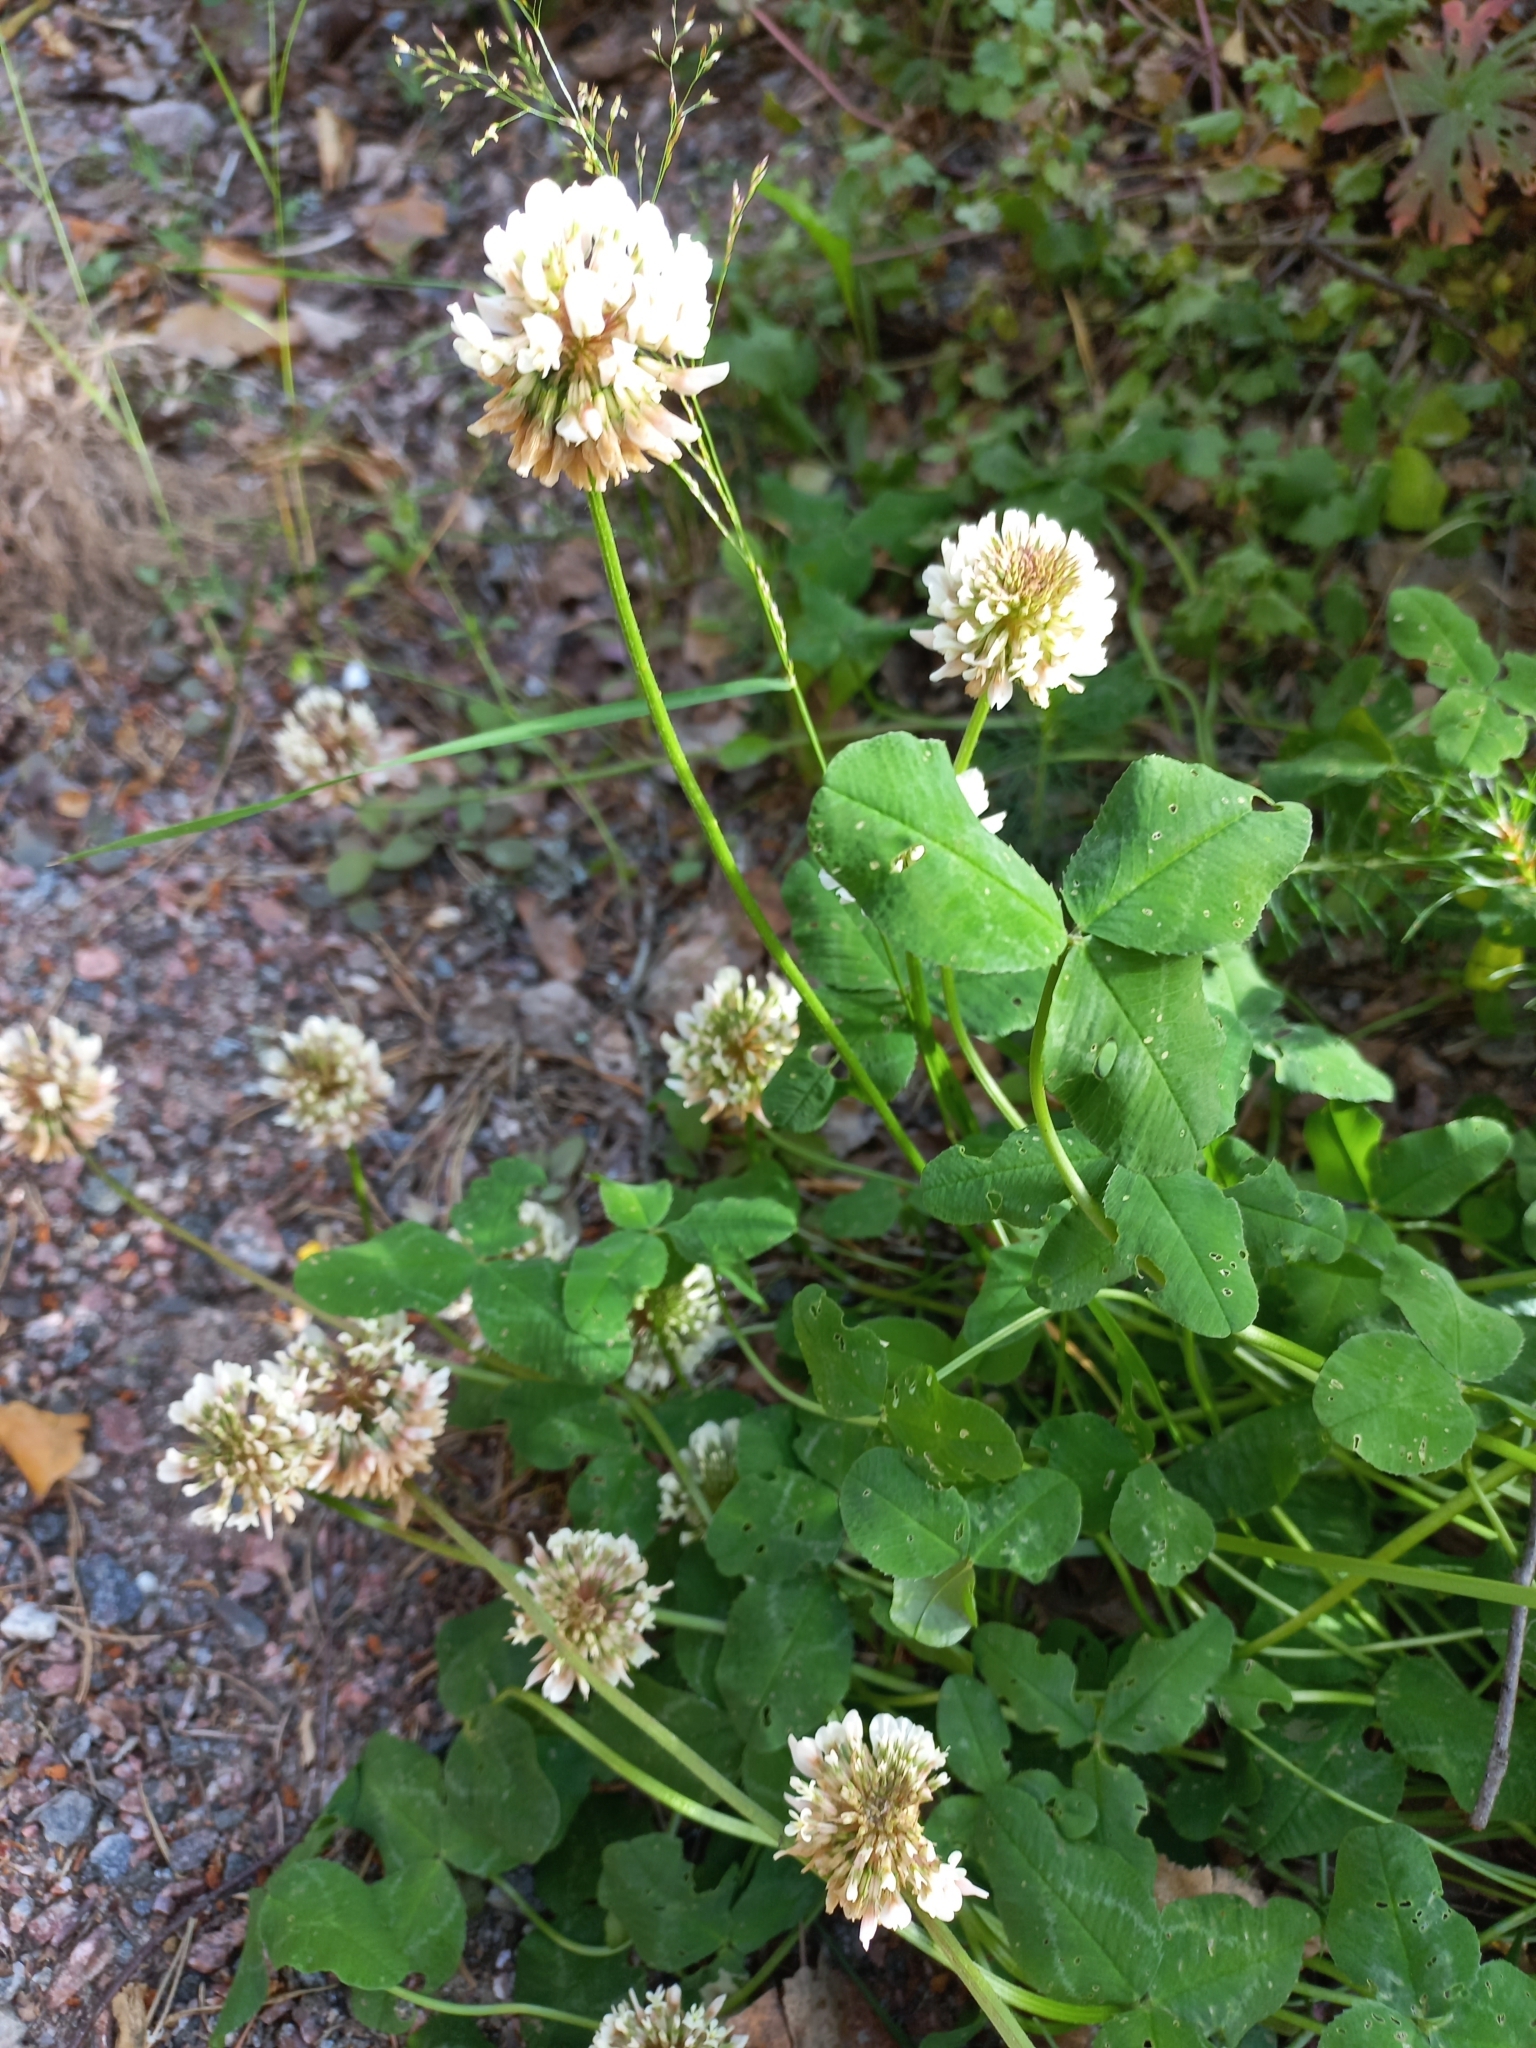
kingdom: Plantae
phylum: Tracheophyta
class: Magnoliopsida
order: Fabales
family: Fabaceae
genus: Trifolium
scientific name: Trifolium repens
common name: White clover
